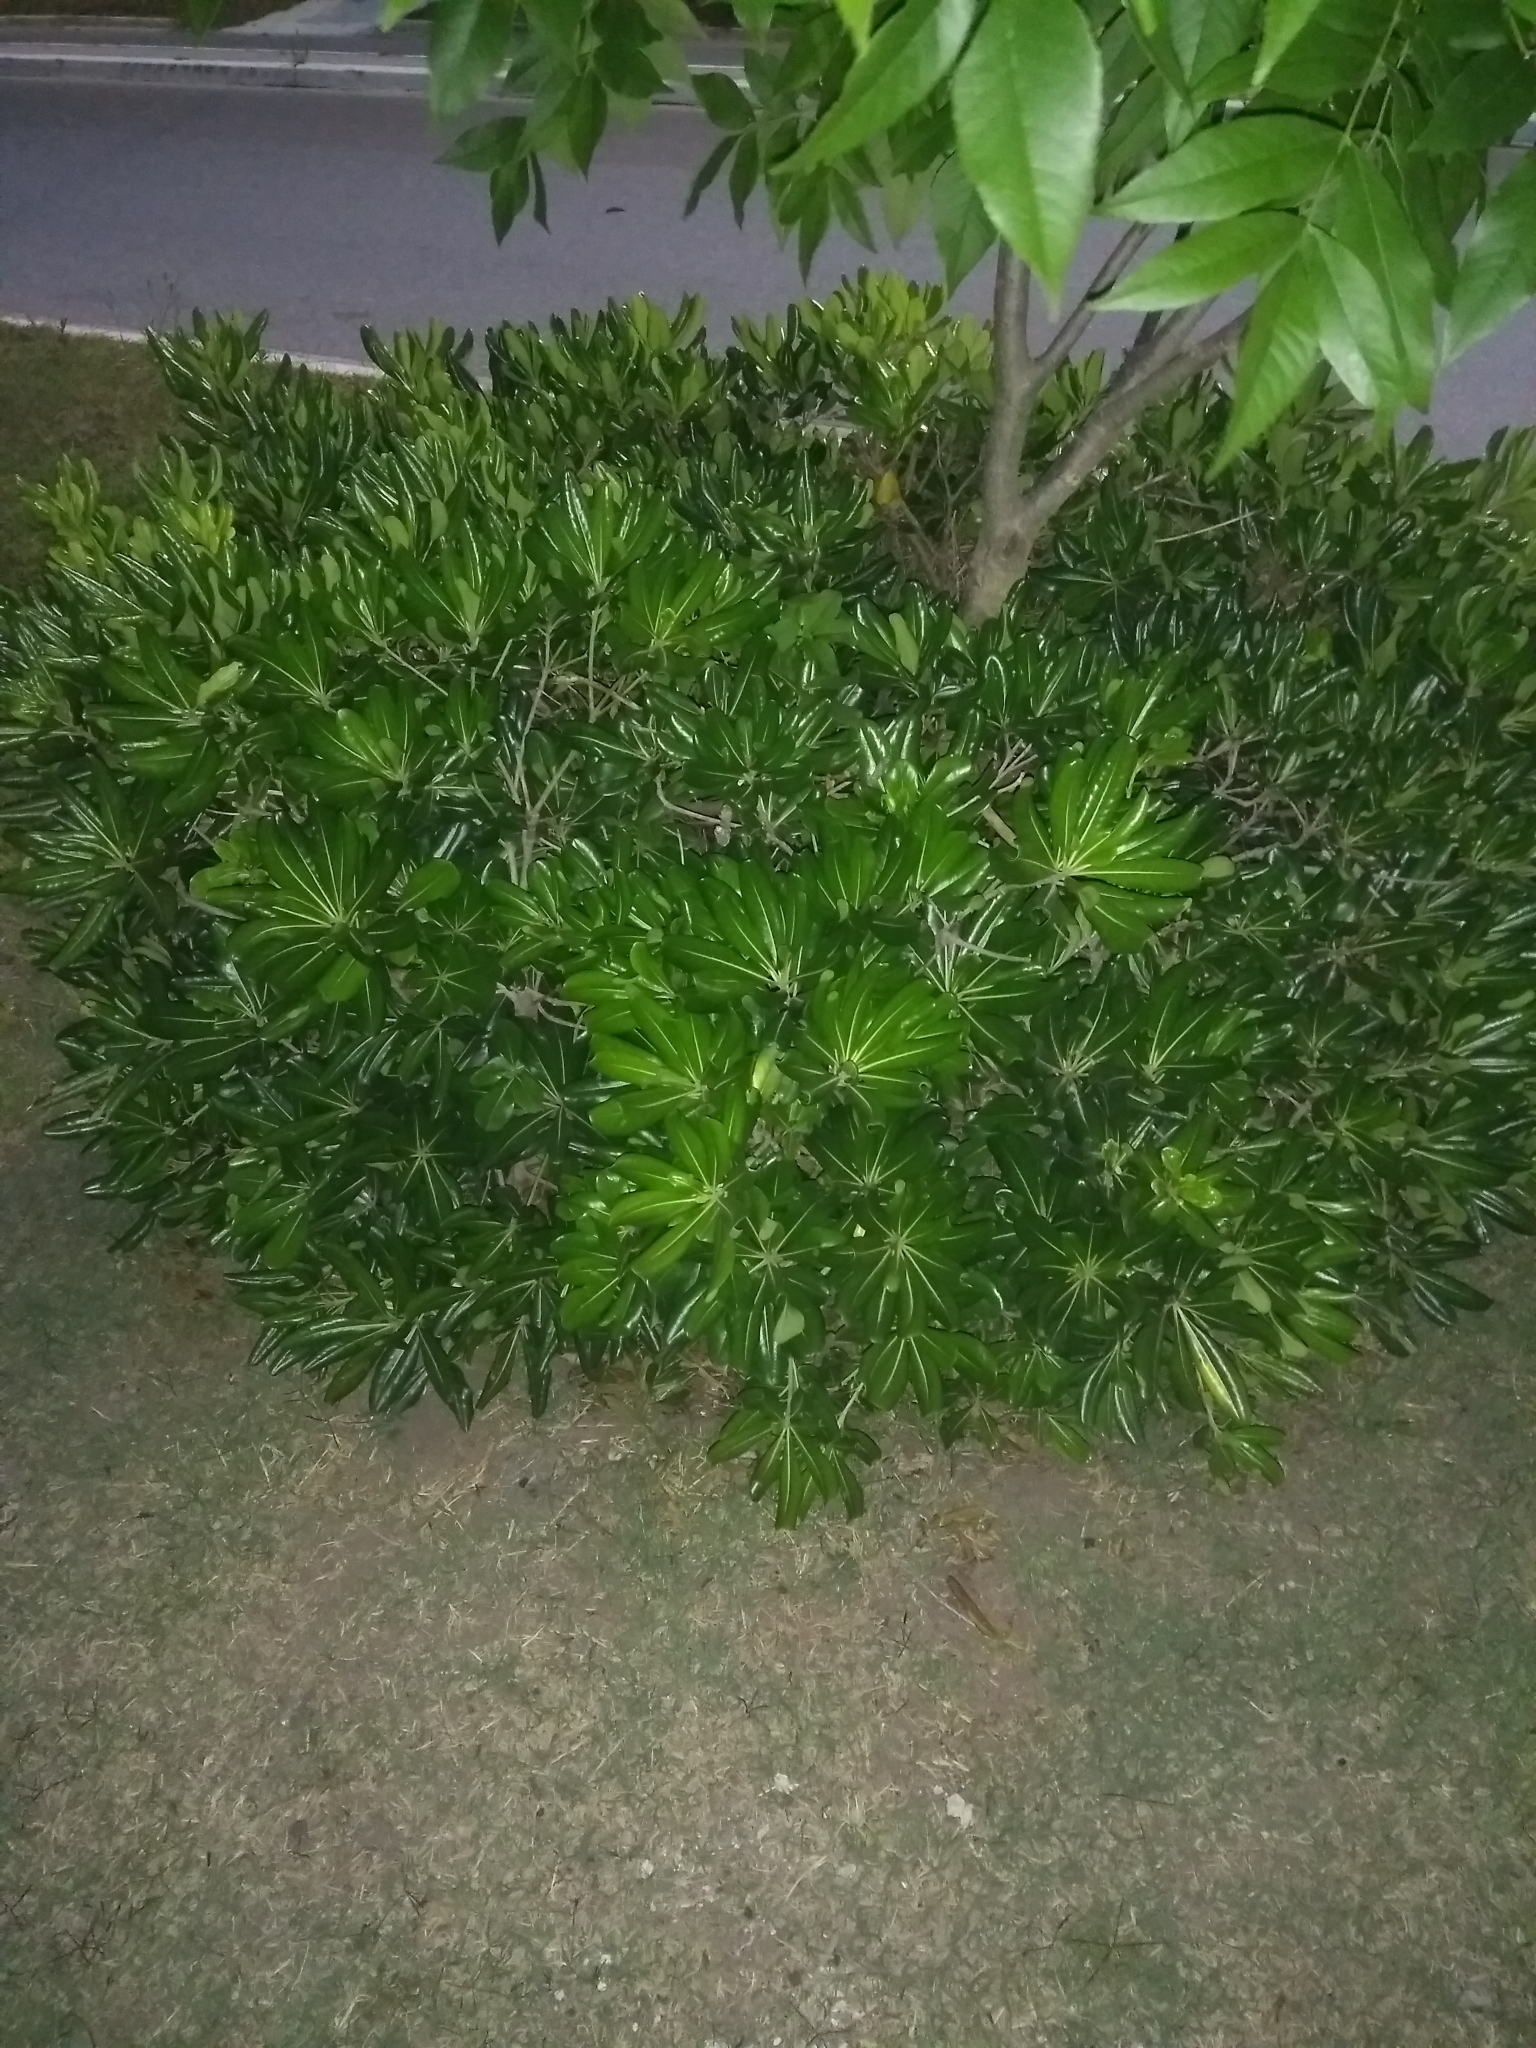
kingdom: Plantae
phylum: Tracheophyta
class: Magnoliopsida
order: Apiales
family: Pittosporaceae
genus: Pittosporum
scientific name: Pittosporum tobira
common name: Japanese cheesewood
